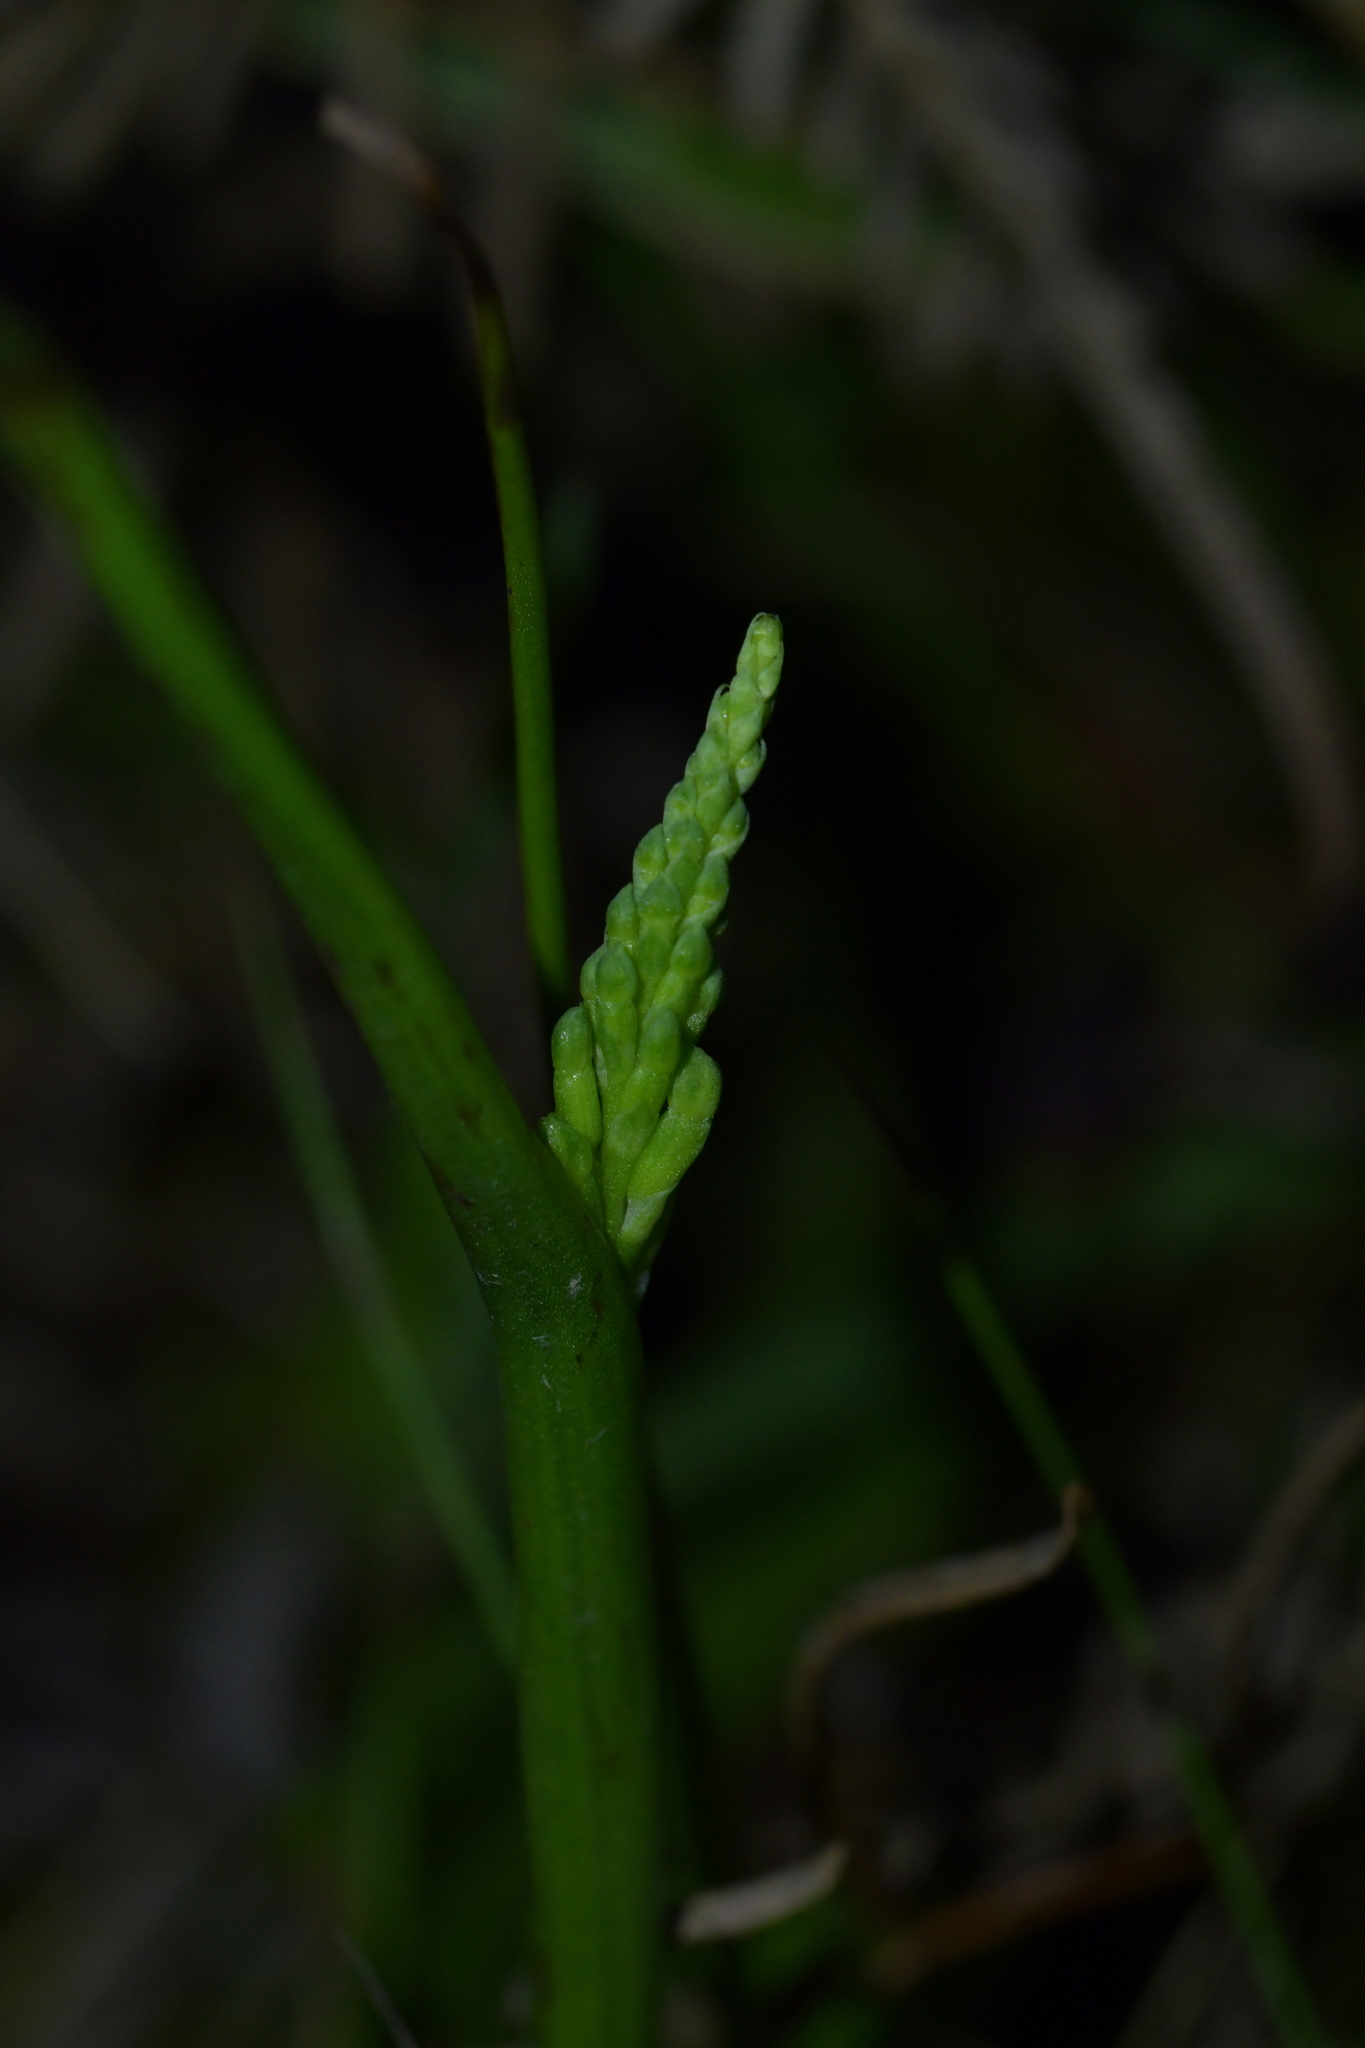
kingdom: Plantae
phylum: Tracheophyta
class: Liliopsida
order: Asparagales
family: Orchidaceae
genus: Microtis
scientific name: Microtis unifolia
